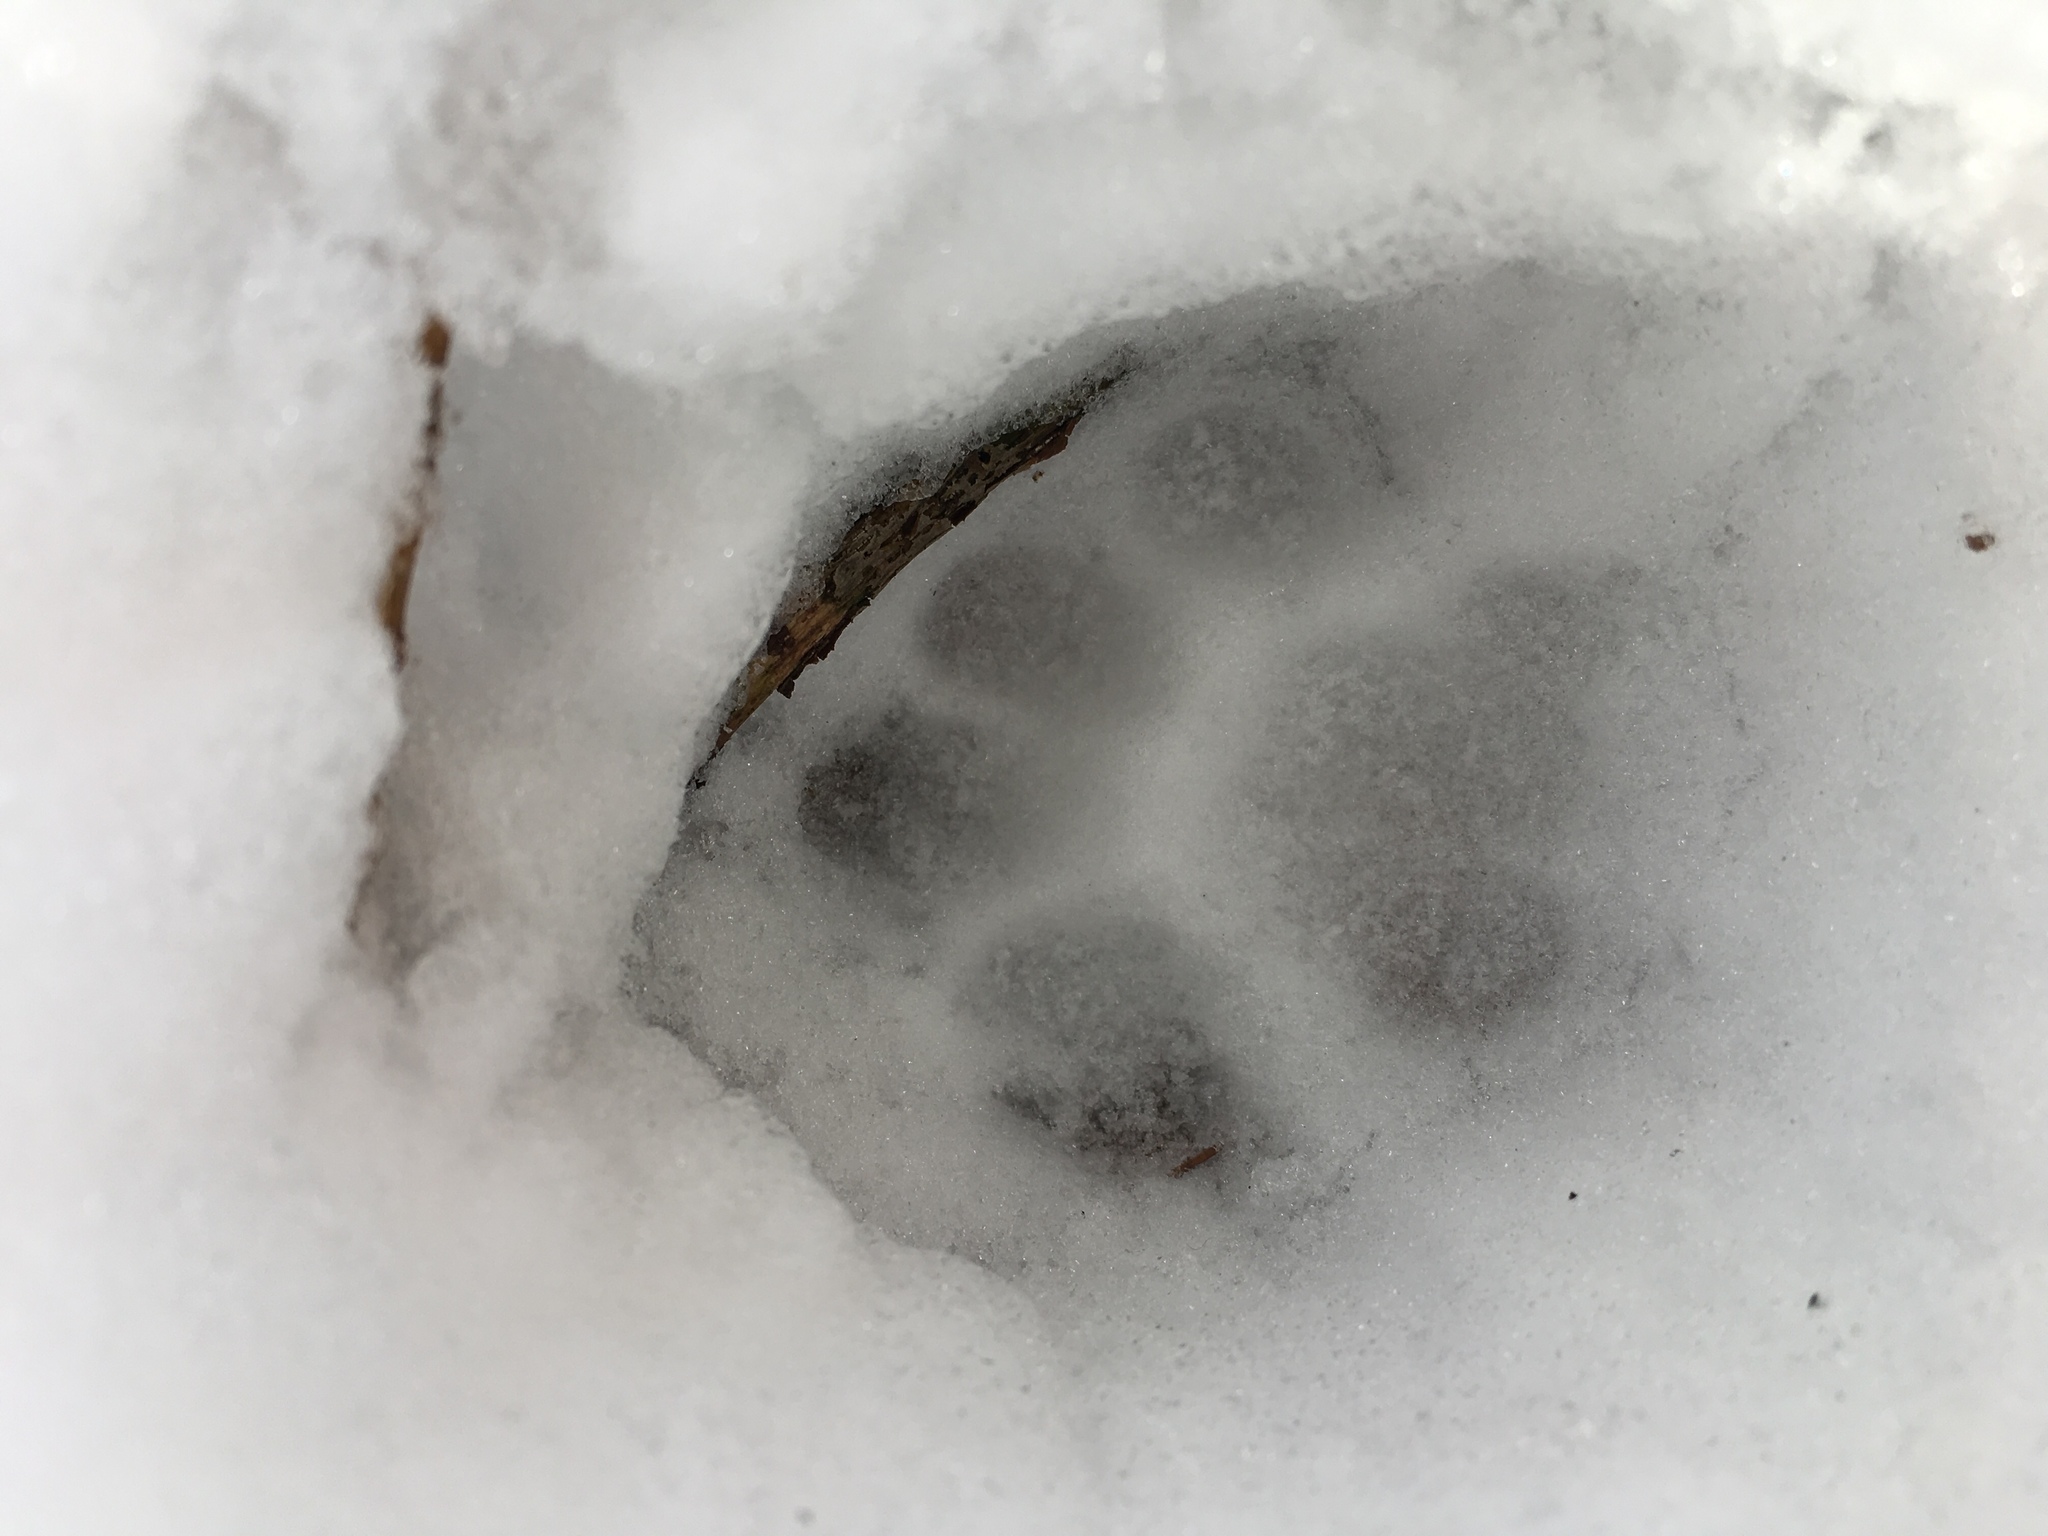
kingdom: Animalia
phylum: Chordata
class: Mammalia
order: Carnivora
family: Felidae
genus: Lynx
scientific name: Lynx rufus
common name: Bobcat
